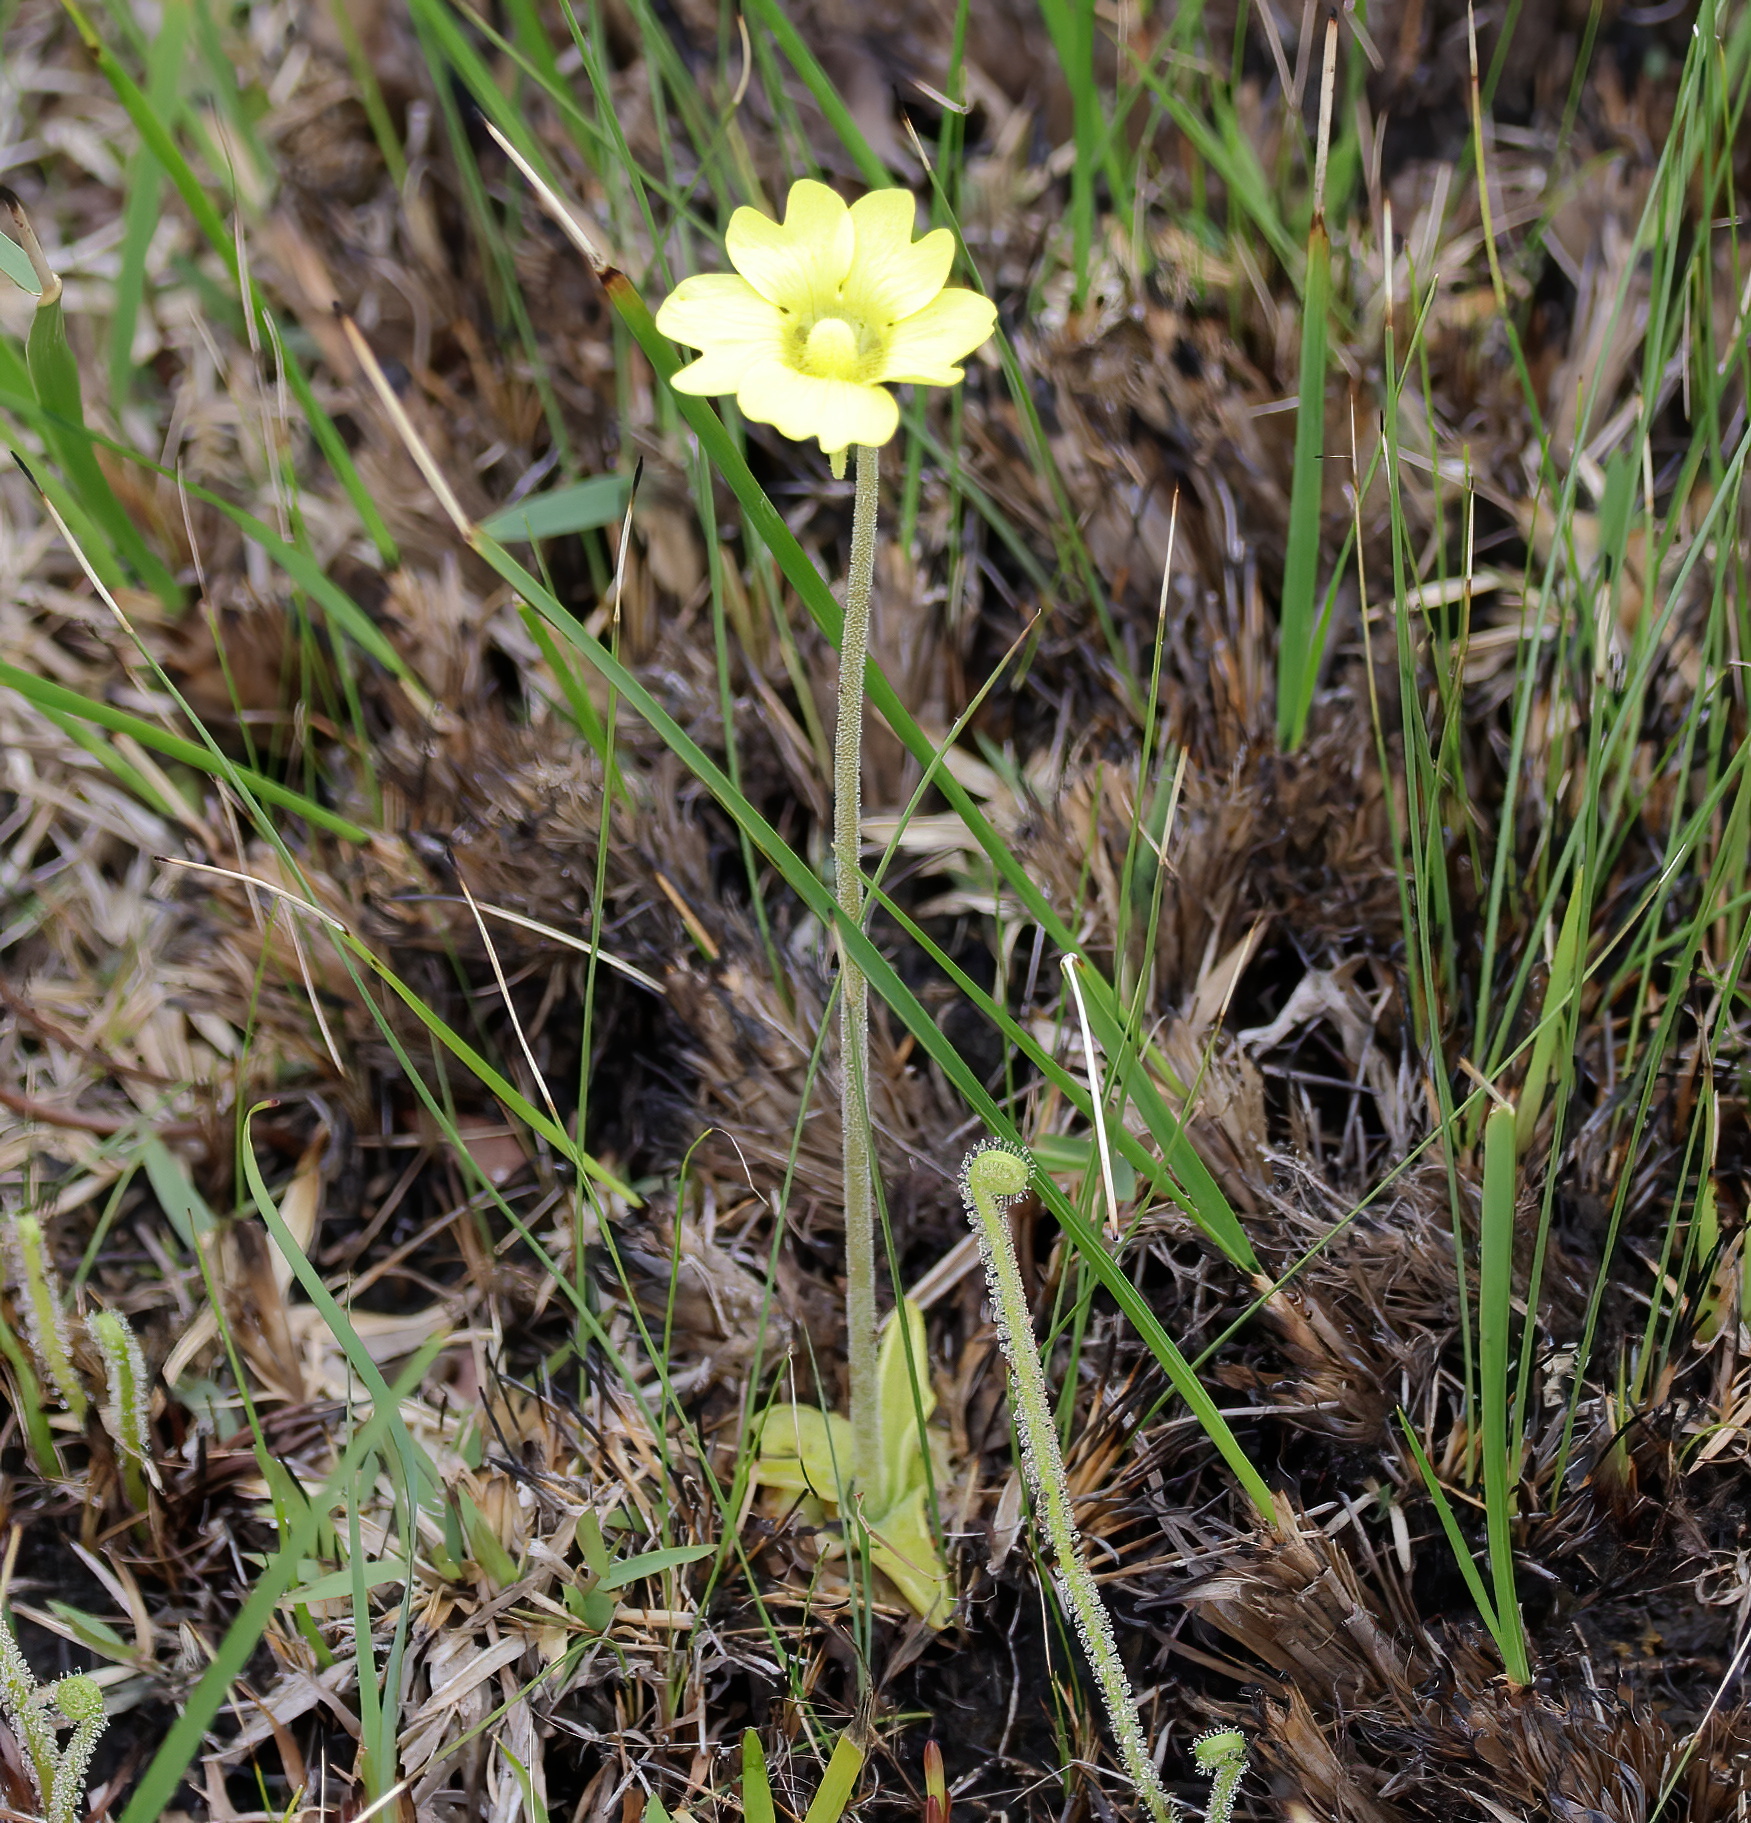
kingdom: Plantae
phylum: Tracheophyta
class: Magnoliopsida
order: Lamiales
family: Lentibulariaceae
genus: Pinguicula
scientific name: Pinguicula lutea
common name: Yellow butterwort
